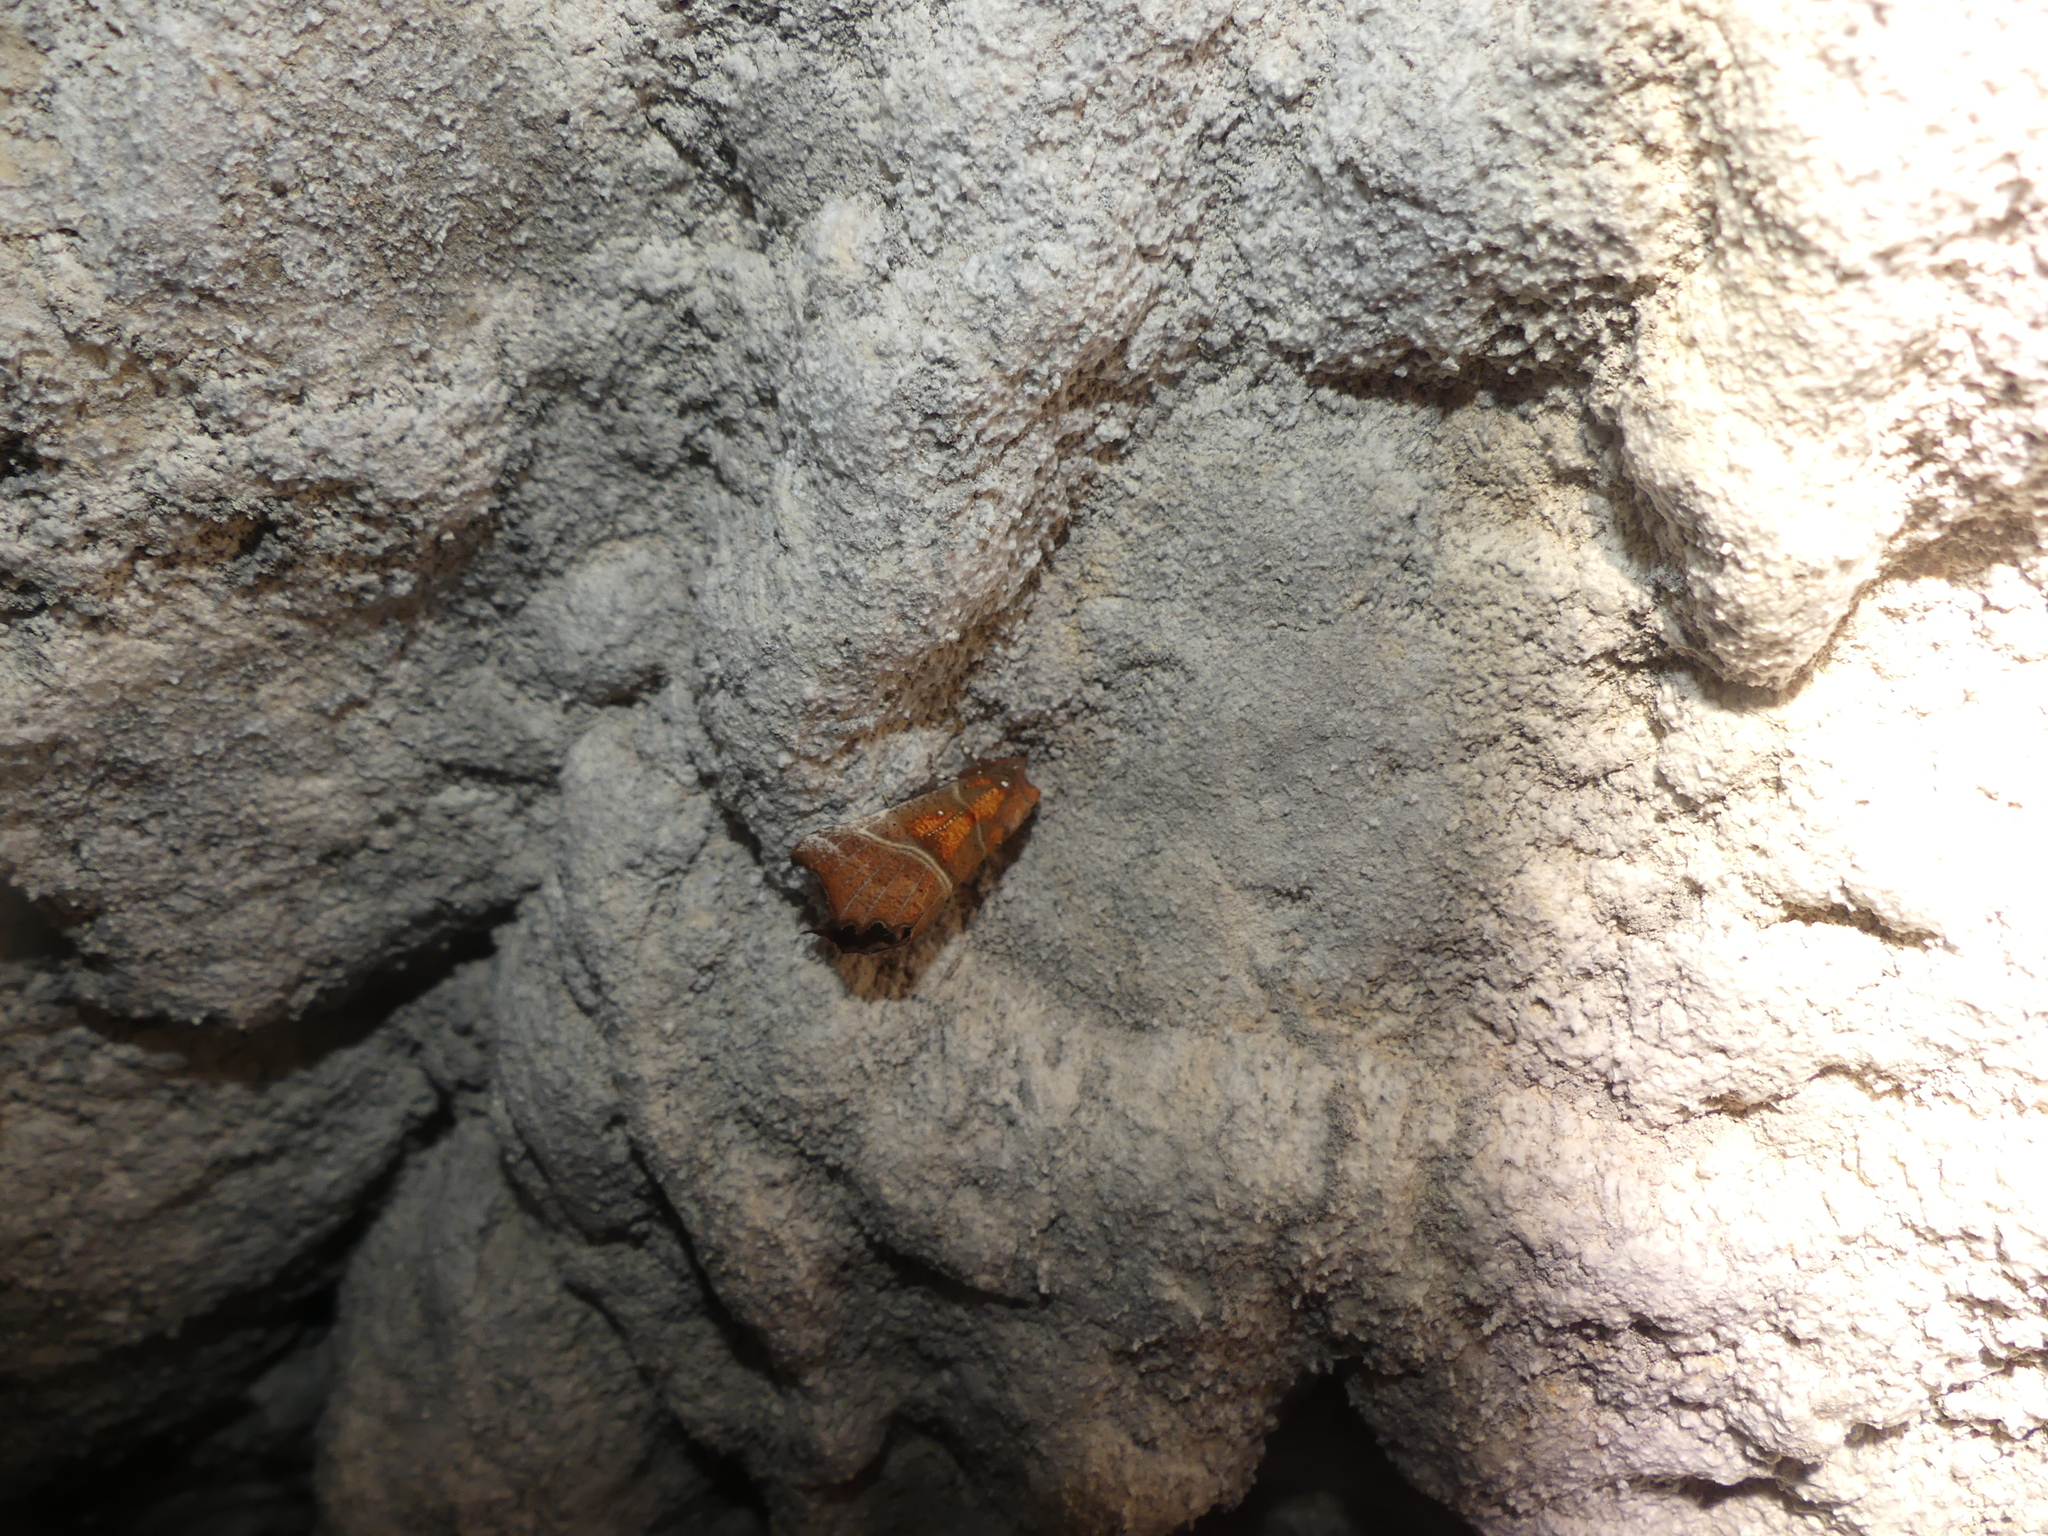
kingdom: Animalia
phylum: Arthropoda
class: Insecta
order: Lepidoptera
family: Erebidae
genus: Scoliopteryx
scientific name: Scoliopteryx libatrix
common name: Herald
